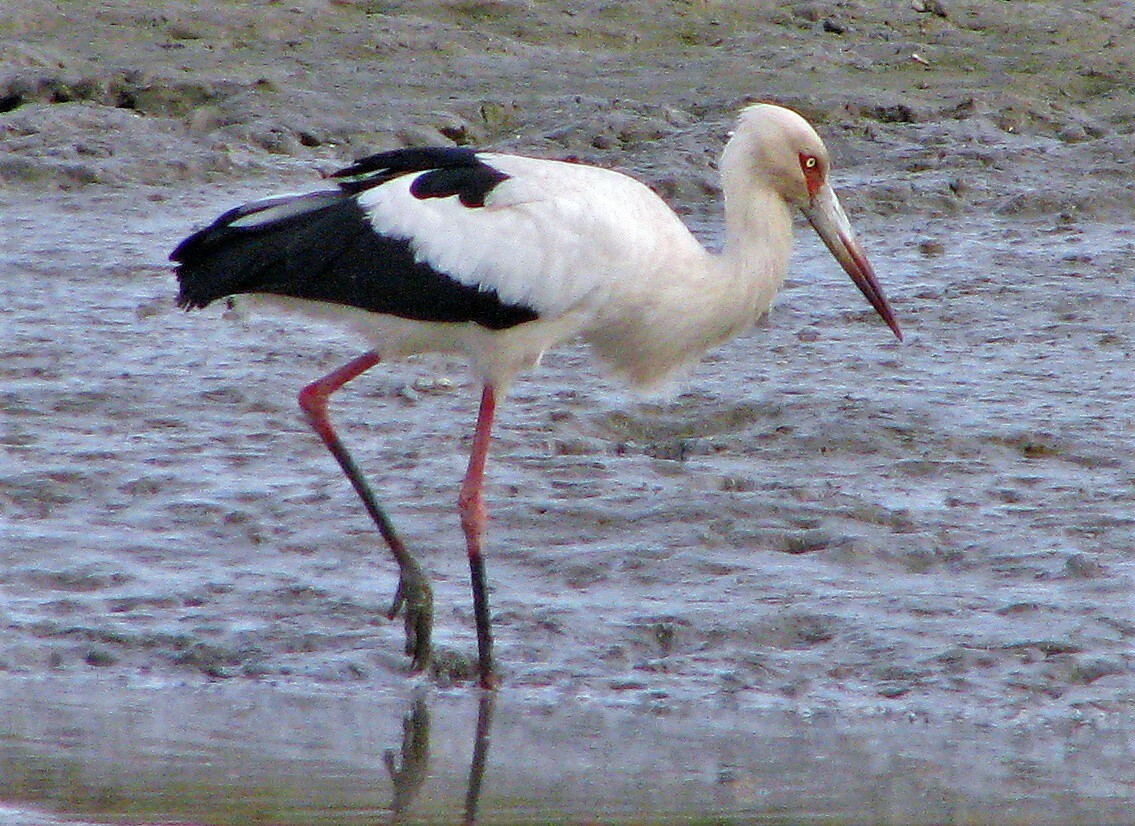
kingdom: Animalia
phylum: Chordata
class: Aves
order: Ciconiiformes
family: Ciconiidae
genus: Ciconia
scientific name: Ciconia maguari
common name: Maguari stork
